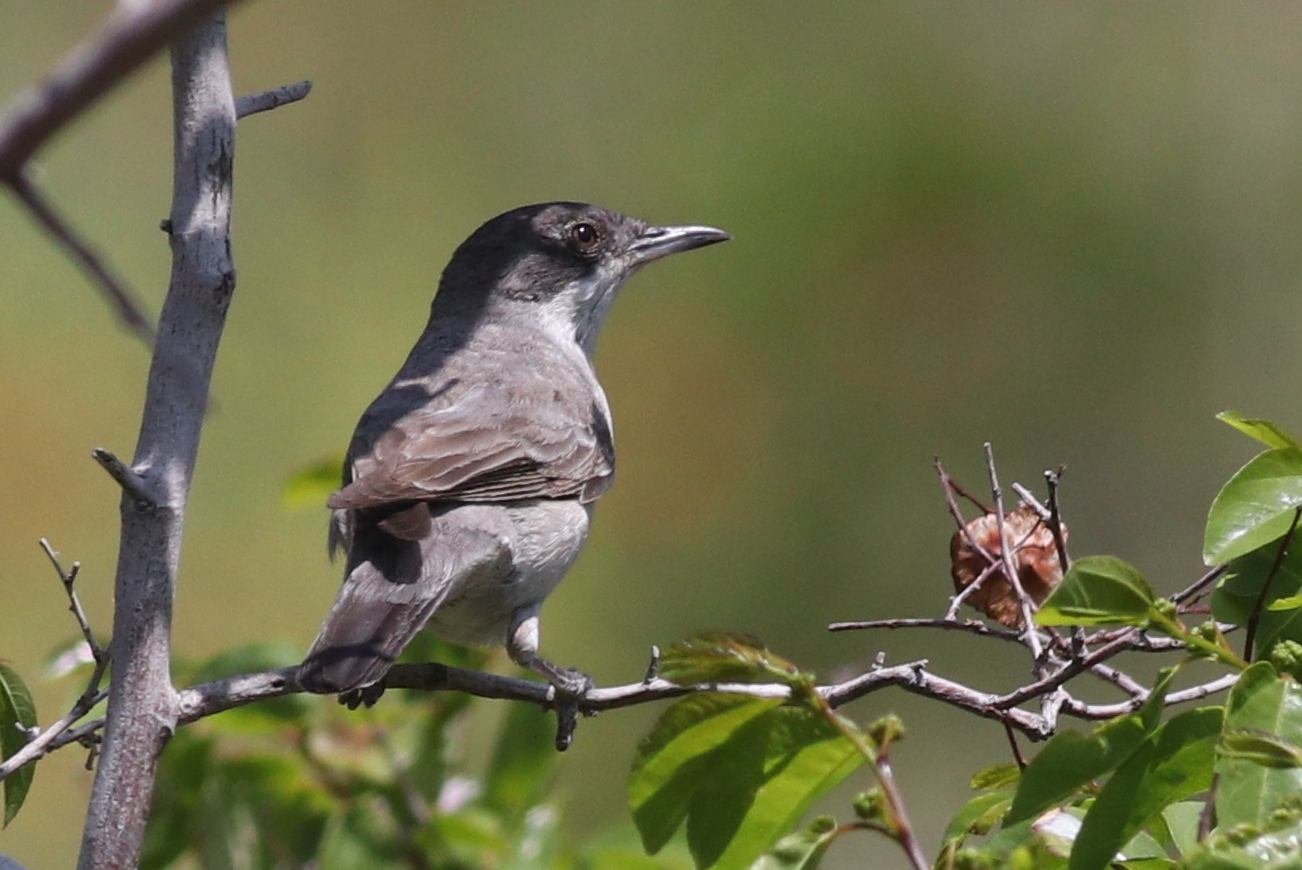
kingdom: Animalia
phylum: Chordata
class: Aves
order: Passeriformes
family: Sylviidae
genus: Sylvia
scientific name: Sylvia crassirostris
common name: Eastern orphean warbler
